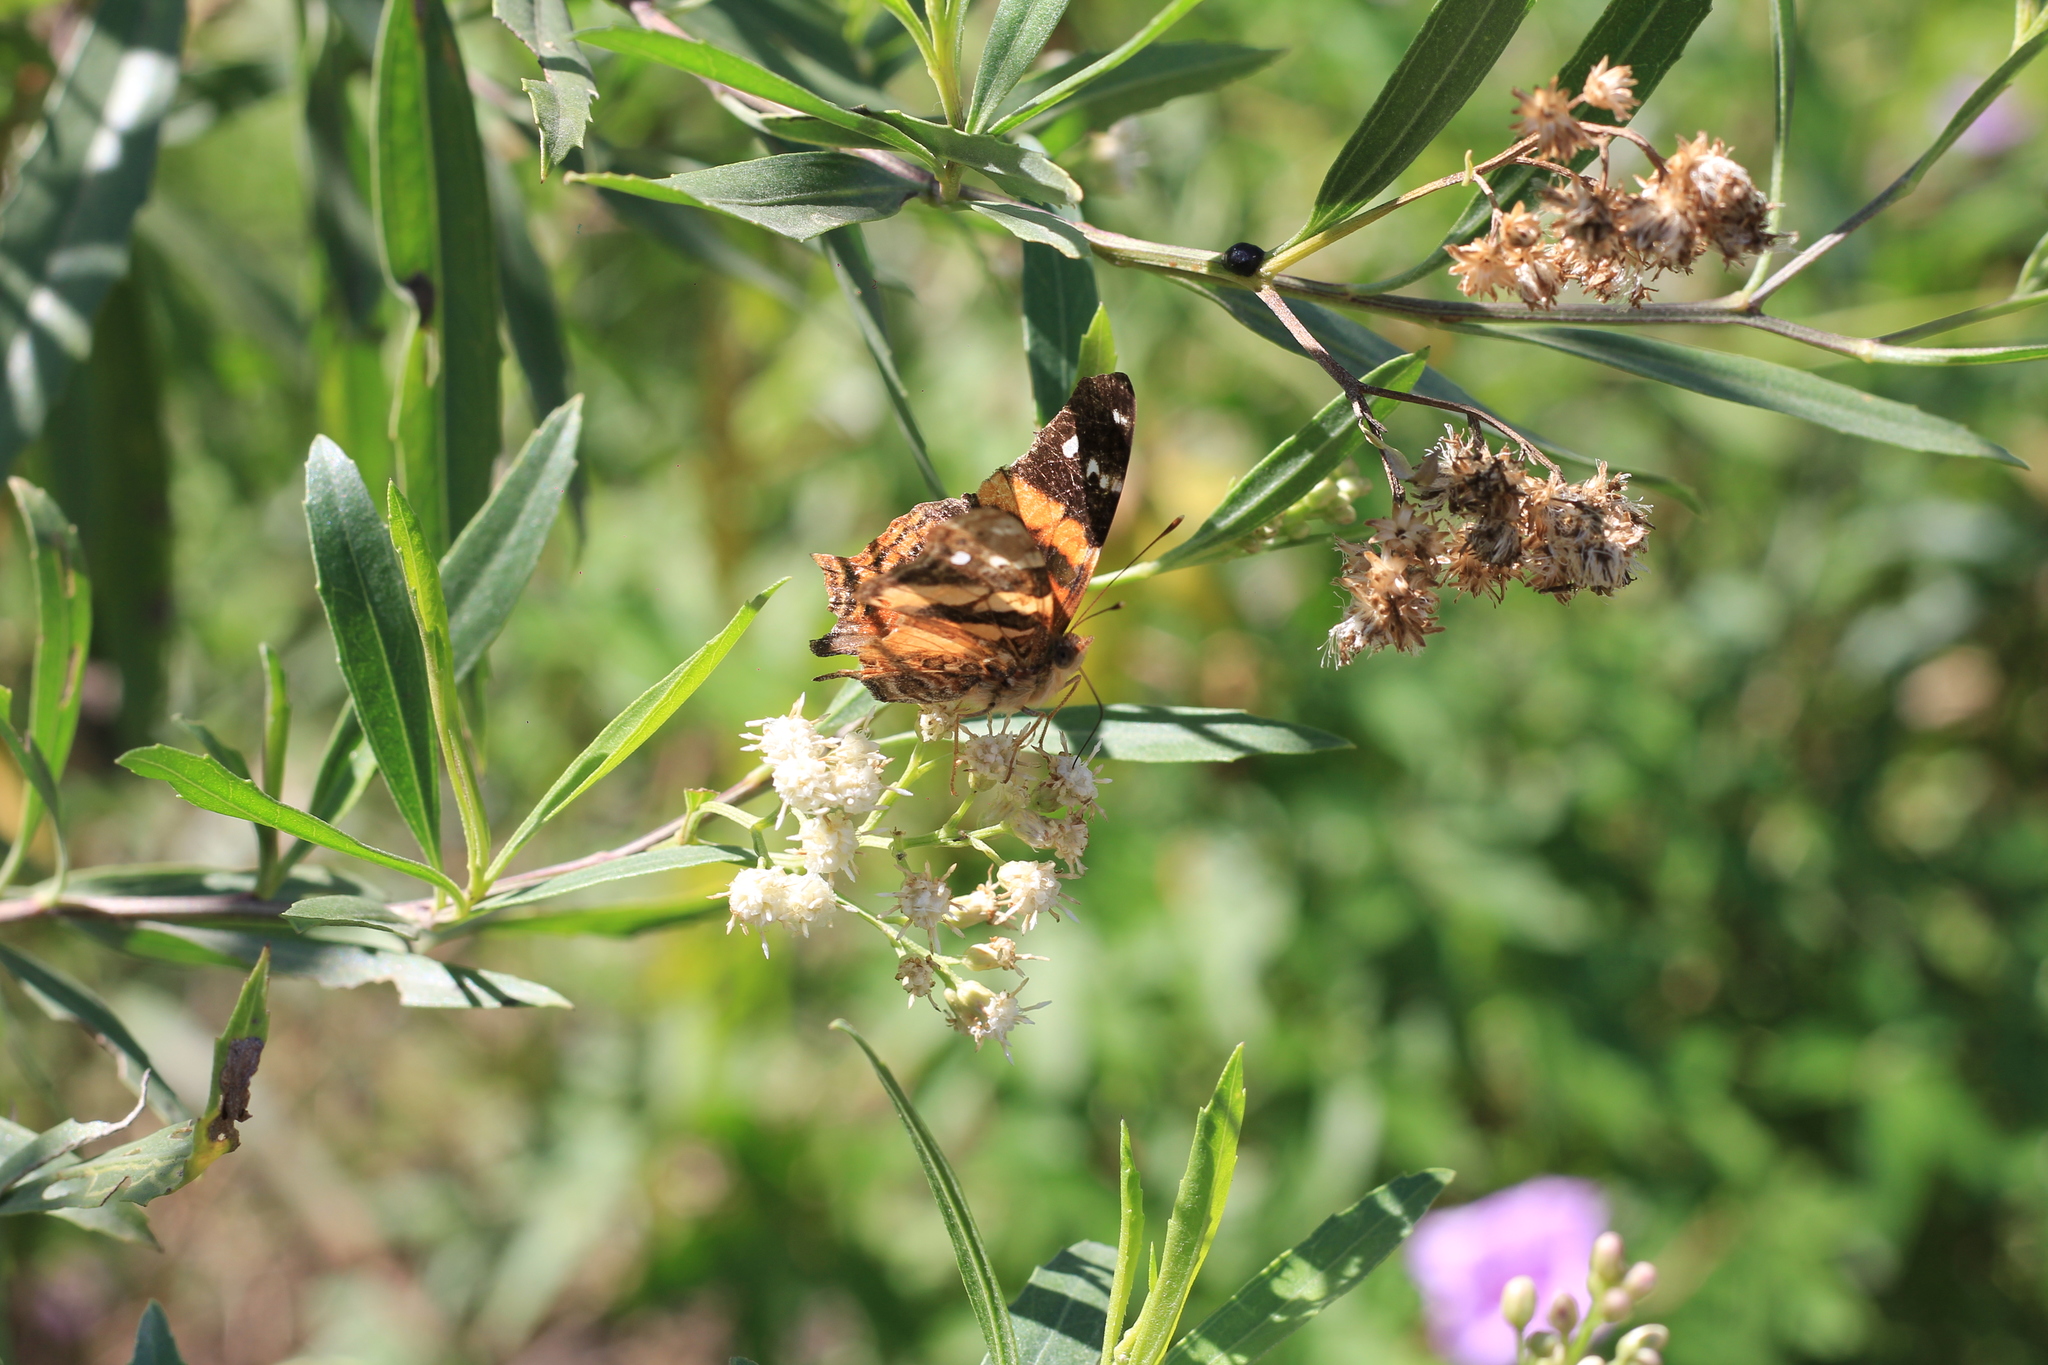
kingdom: Animalia
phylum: Arthropoda
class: Insecta
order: Lepidoptera
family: Nymphalidae
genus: Hypanartia
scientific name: Hypanartia bella
